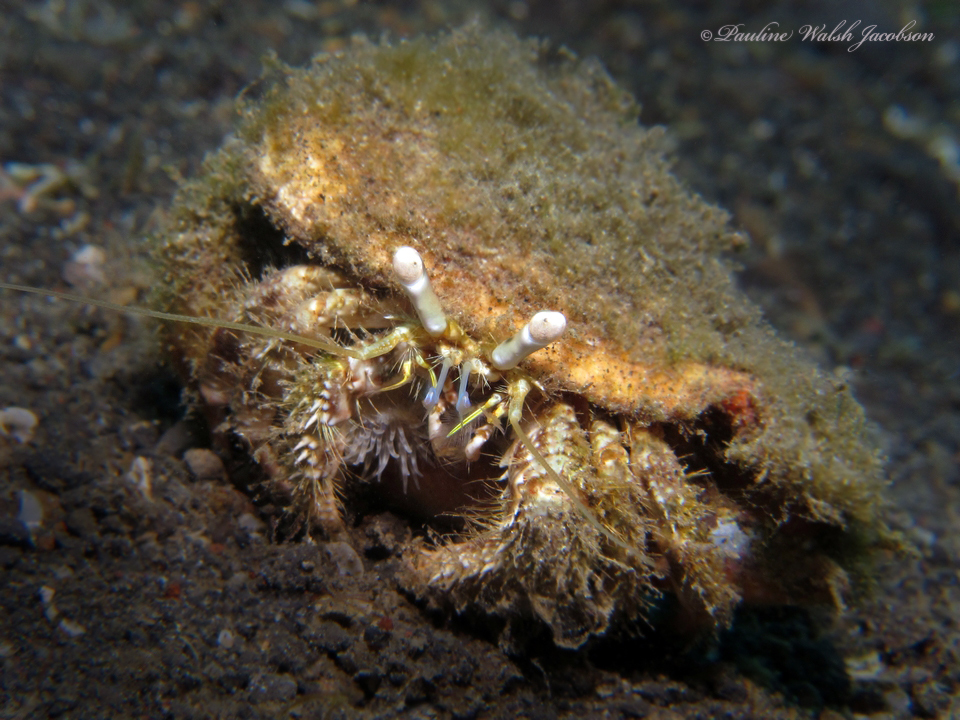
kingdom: Animalia
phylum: Arthropoda
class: Malacostraca
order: Decapoda
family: Diogenidae
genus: Dardanus
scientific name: Dardanus woodmasoni
